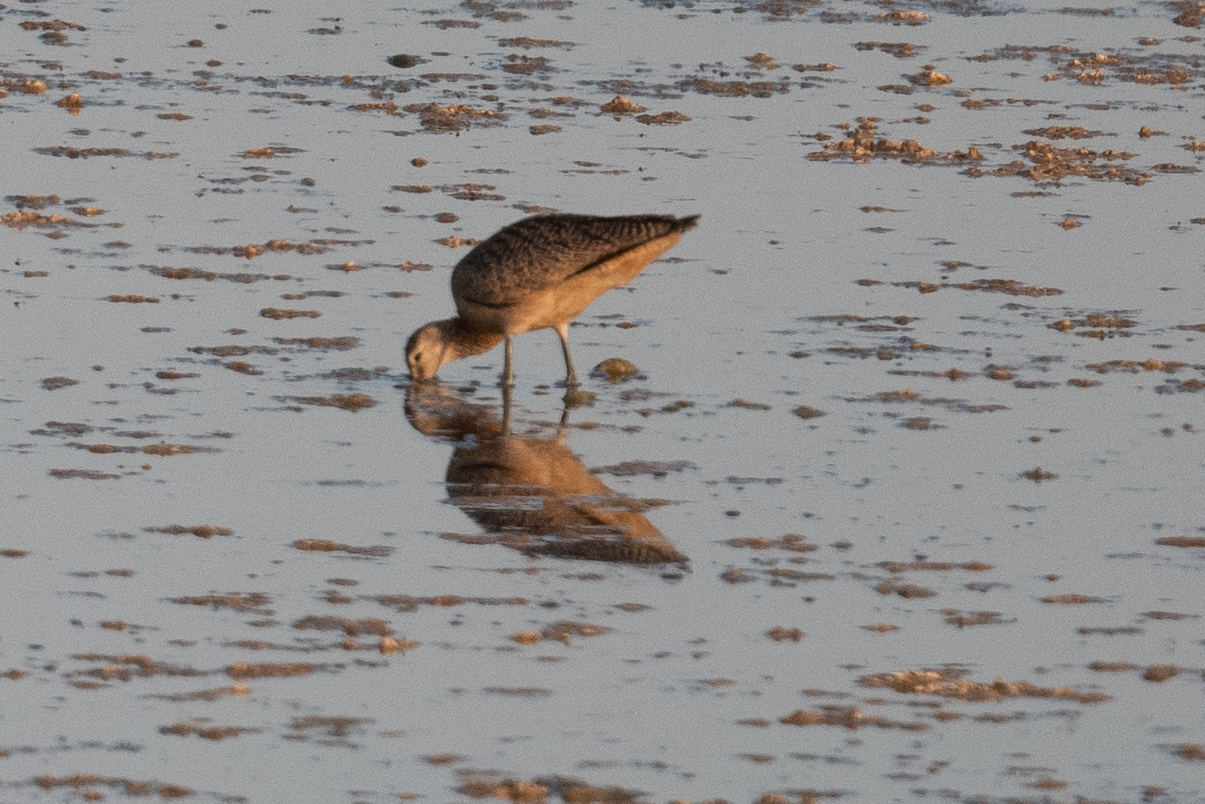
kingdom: Animalia
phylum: Chordata
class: Aves
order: Charadriiformes
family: Scolopacidae
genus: Numenius
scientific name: Numenius americanus
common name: Long-billed curlew
